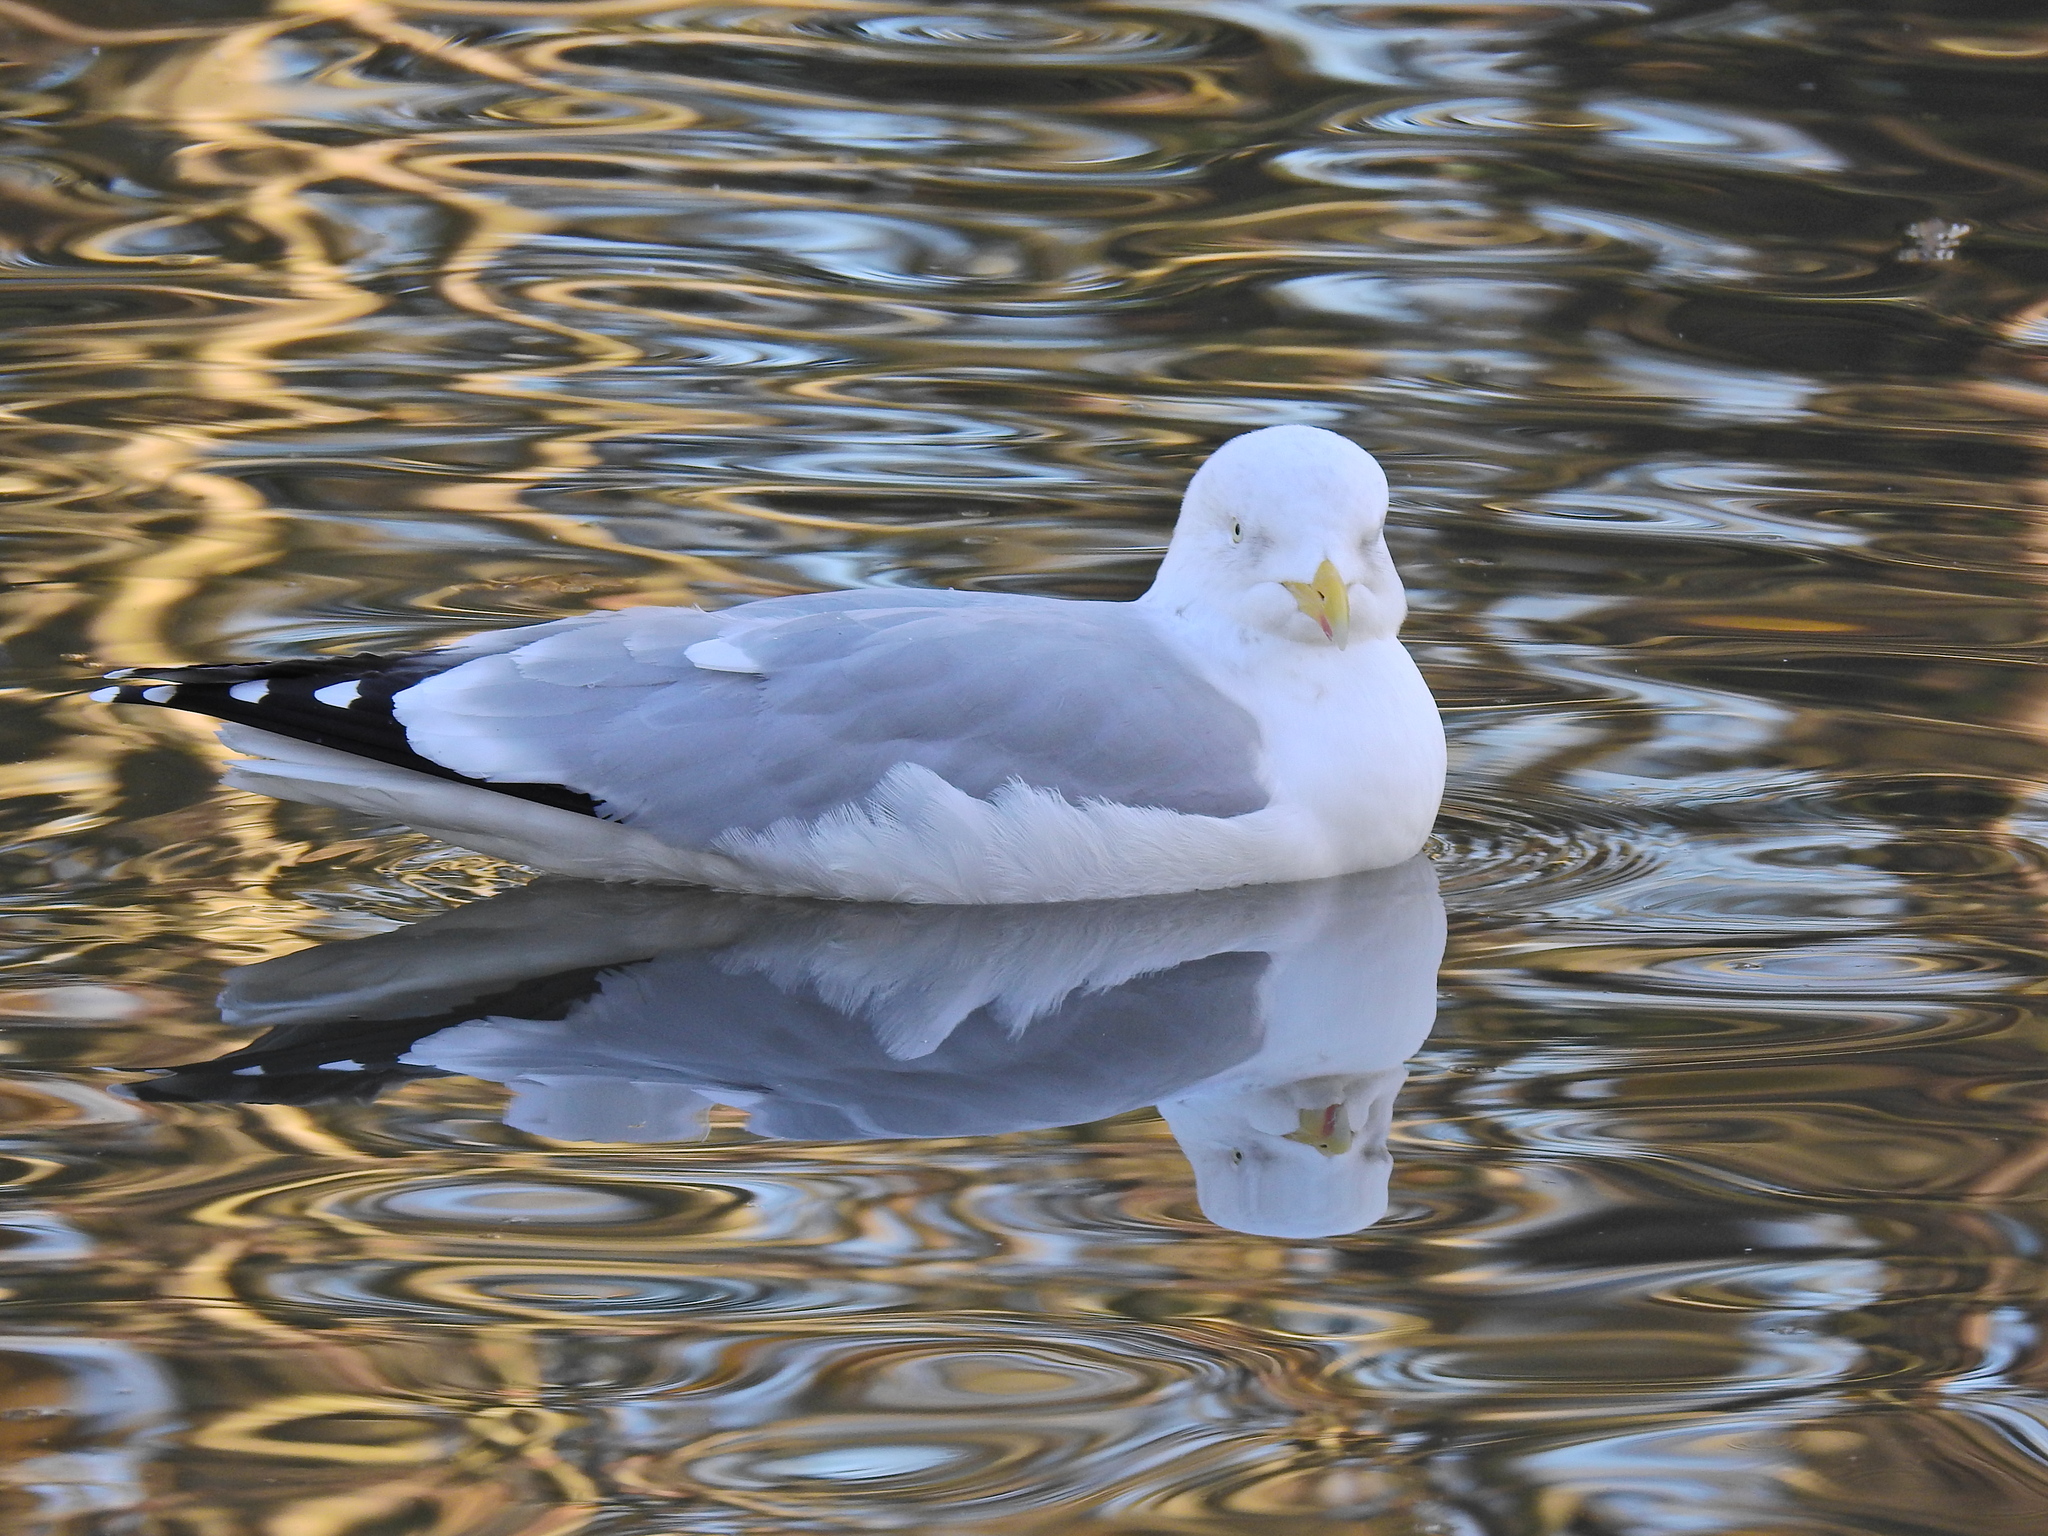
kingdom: Animalia
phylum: Chordata
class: Aves
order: Charadriiformes
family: Laridae
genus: Larus
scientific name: Larus argentatus
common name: Herring gull
